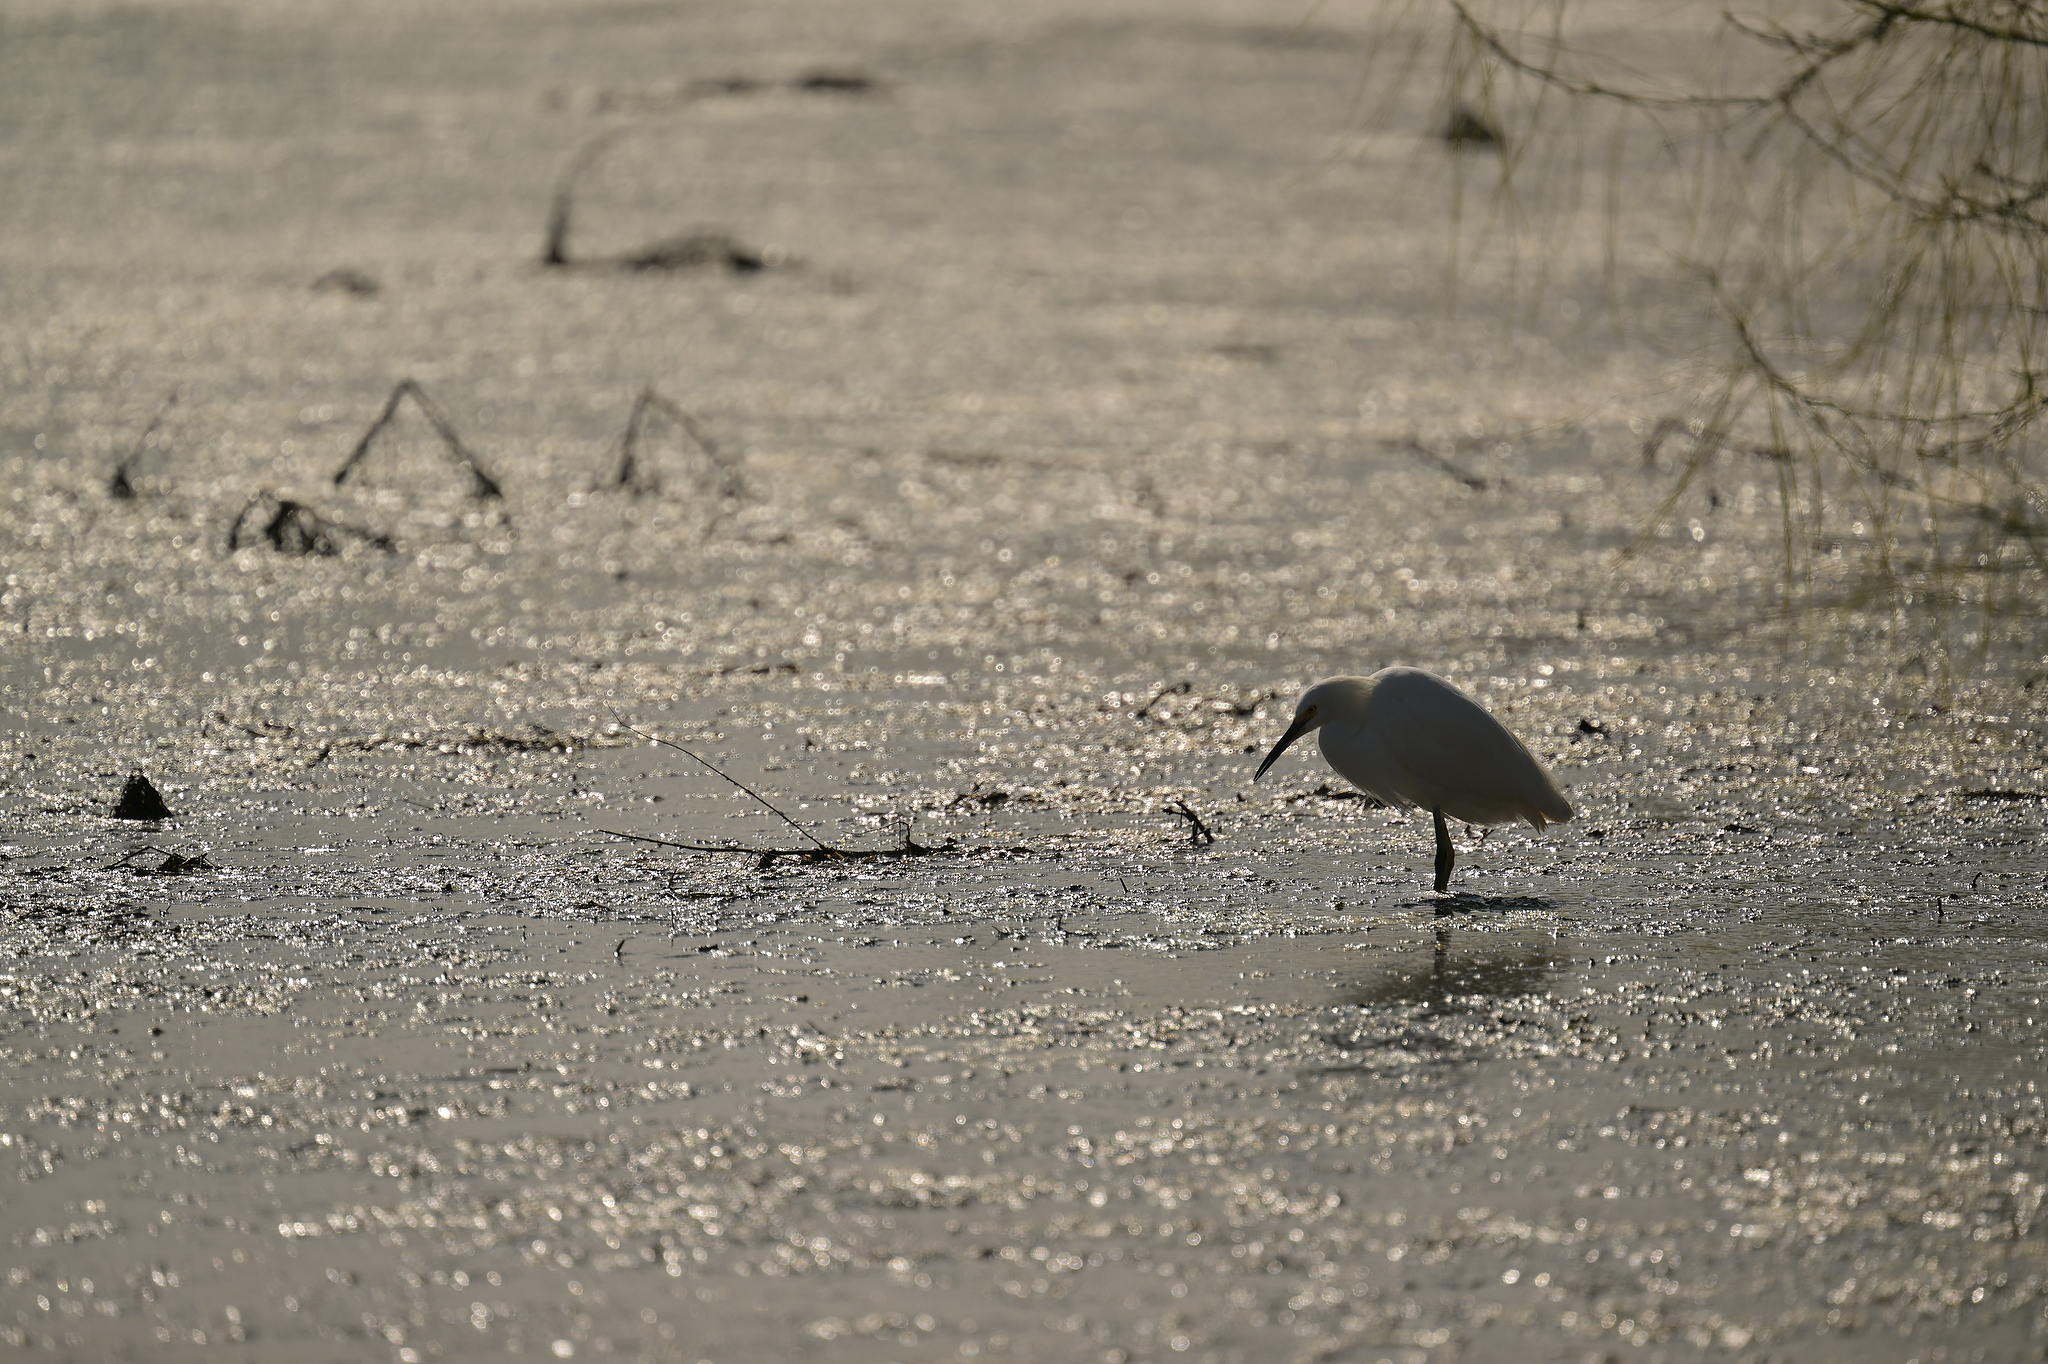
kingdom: Animalia
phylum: Chordata
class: Aves
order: Pelecaniformes
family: Ardeidae
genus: Egretta
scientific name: Egretta thula
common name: Snowy egret
